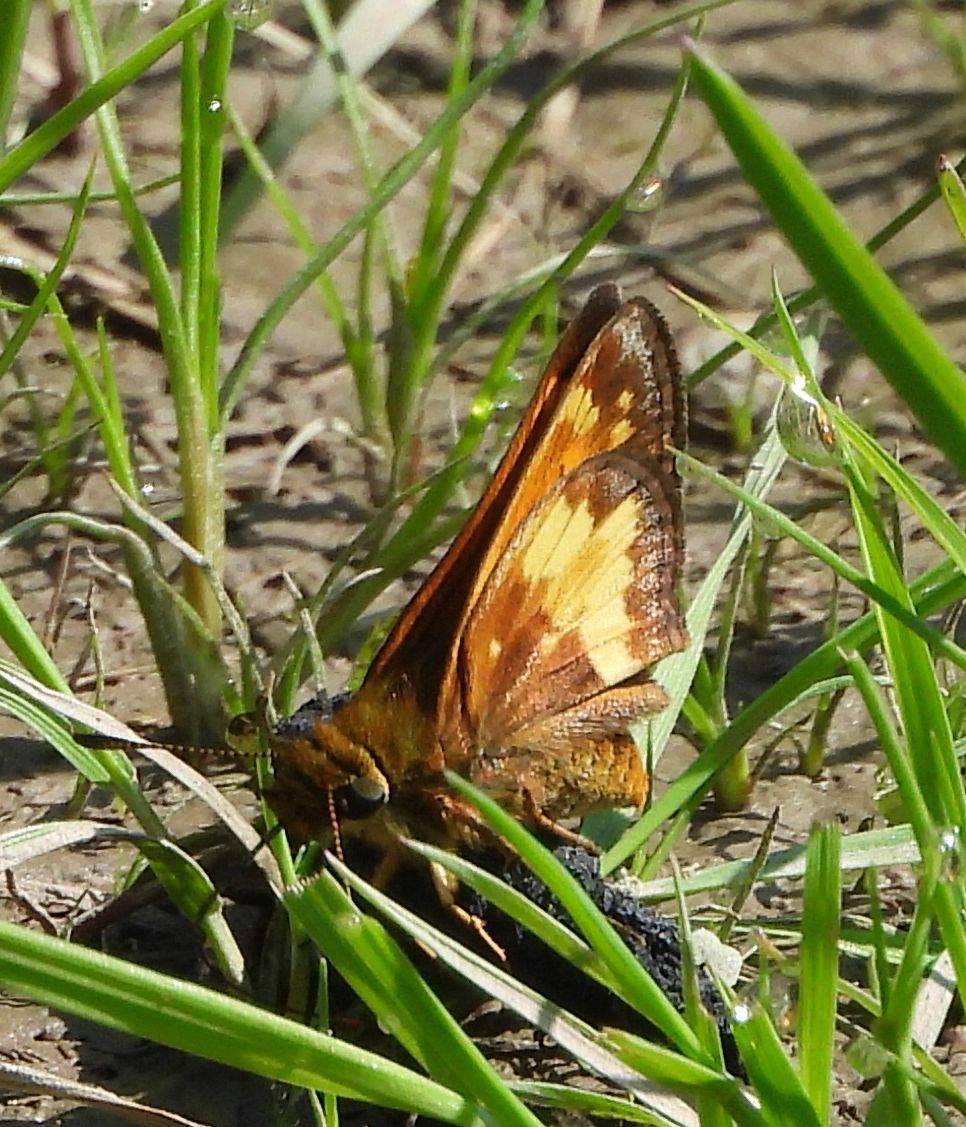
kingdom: Animalia
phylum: Arthropoda
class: Insecta
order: Lepidoptera
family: Hesperiidae
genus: Lon
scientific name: Lon hobomok
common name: Hobomok skipper
